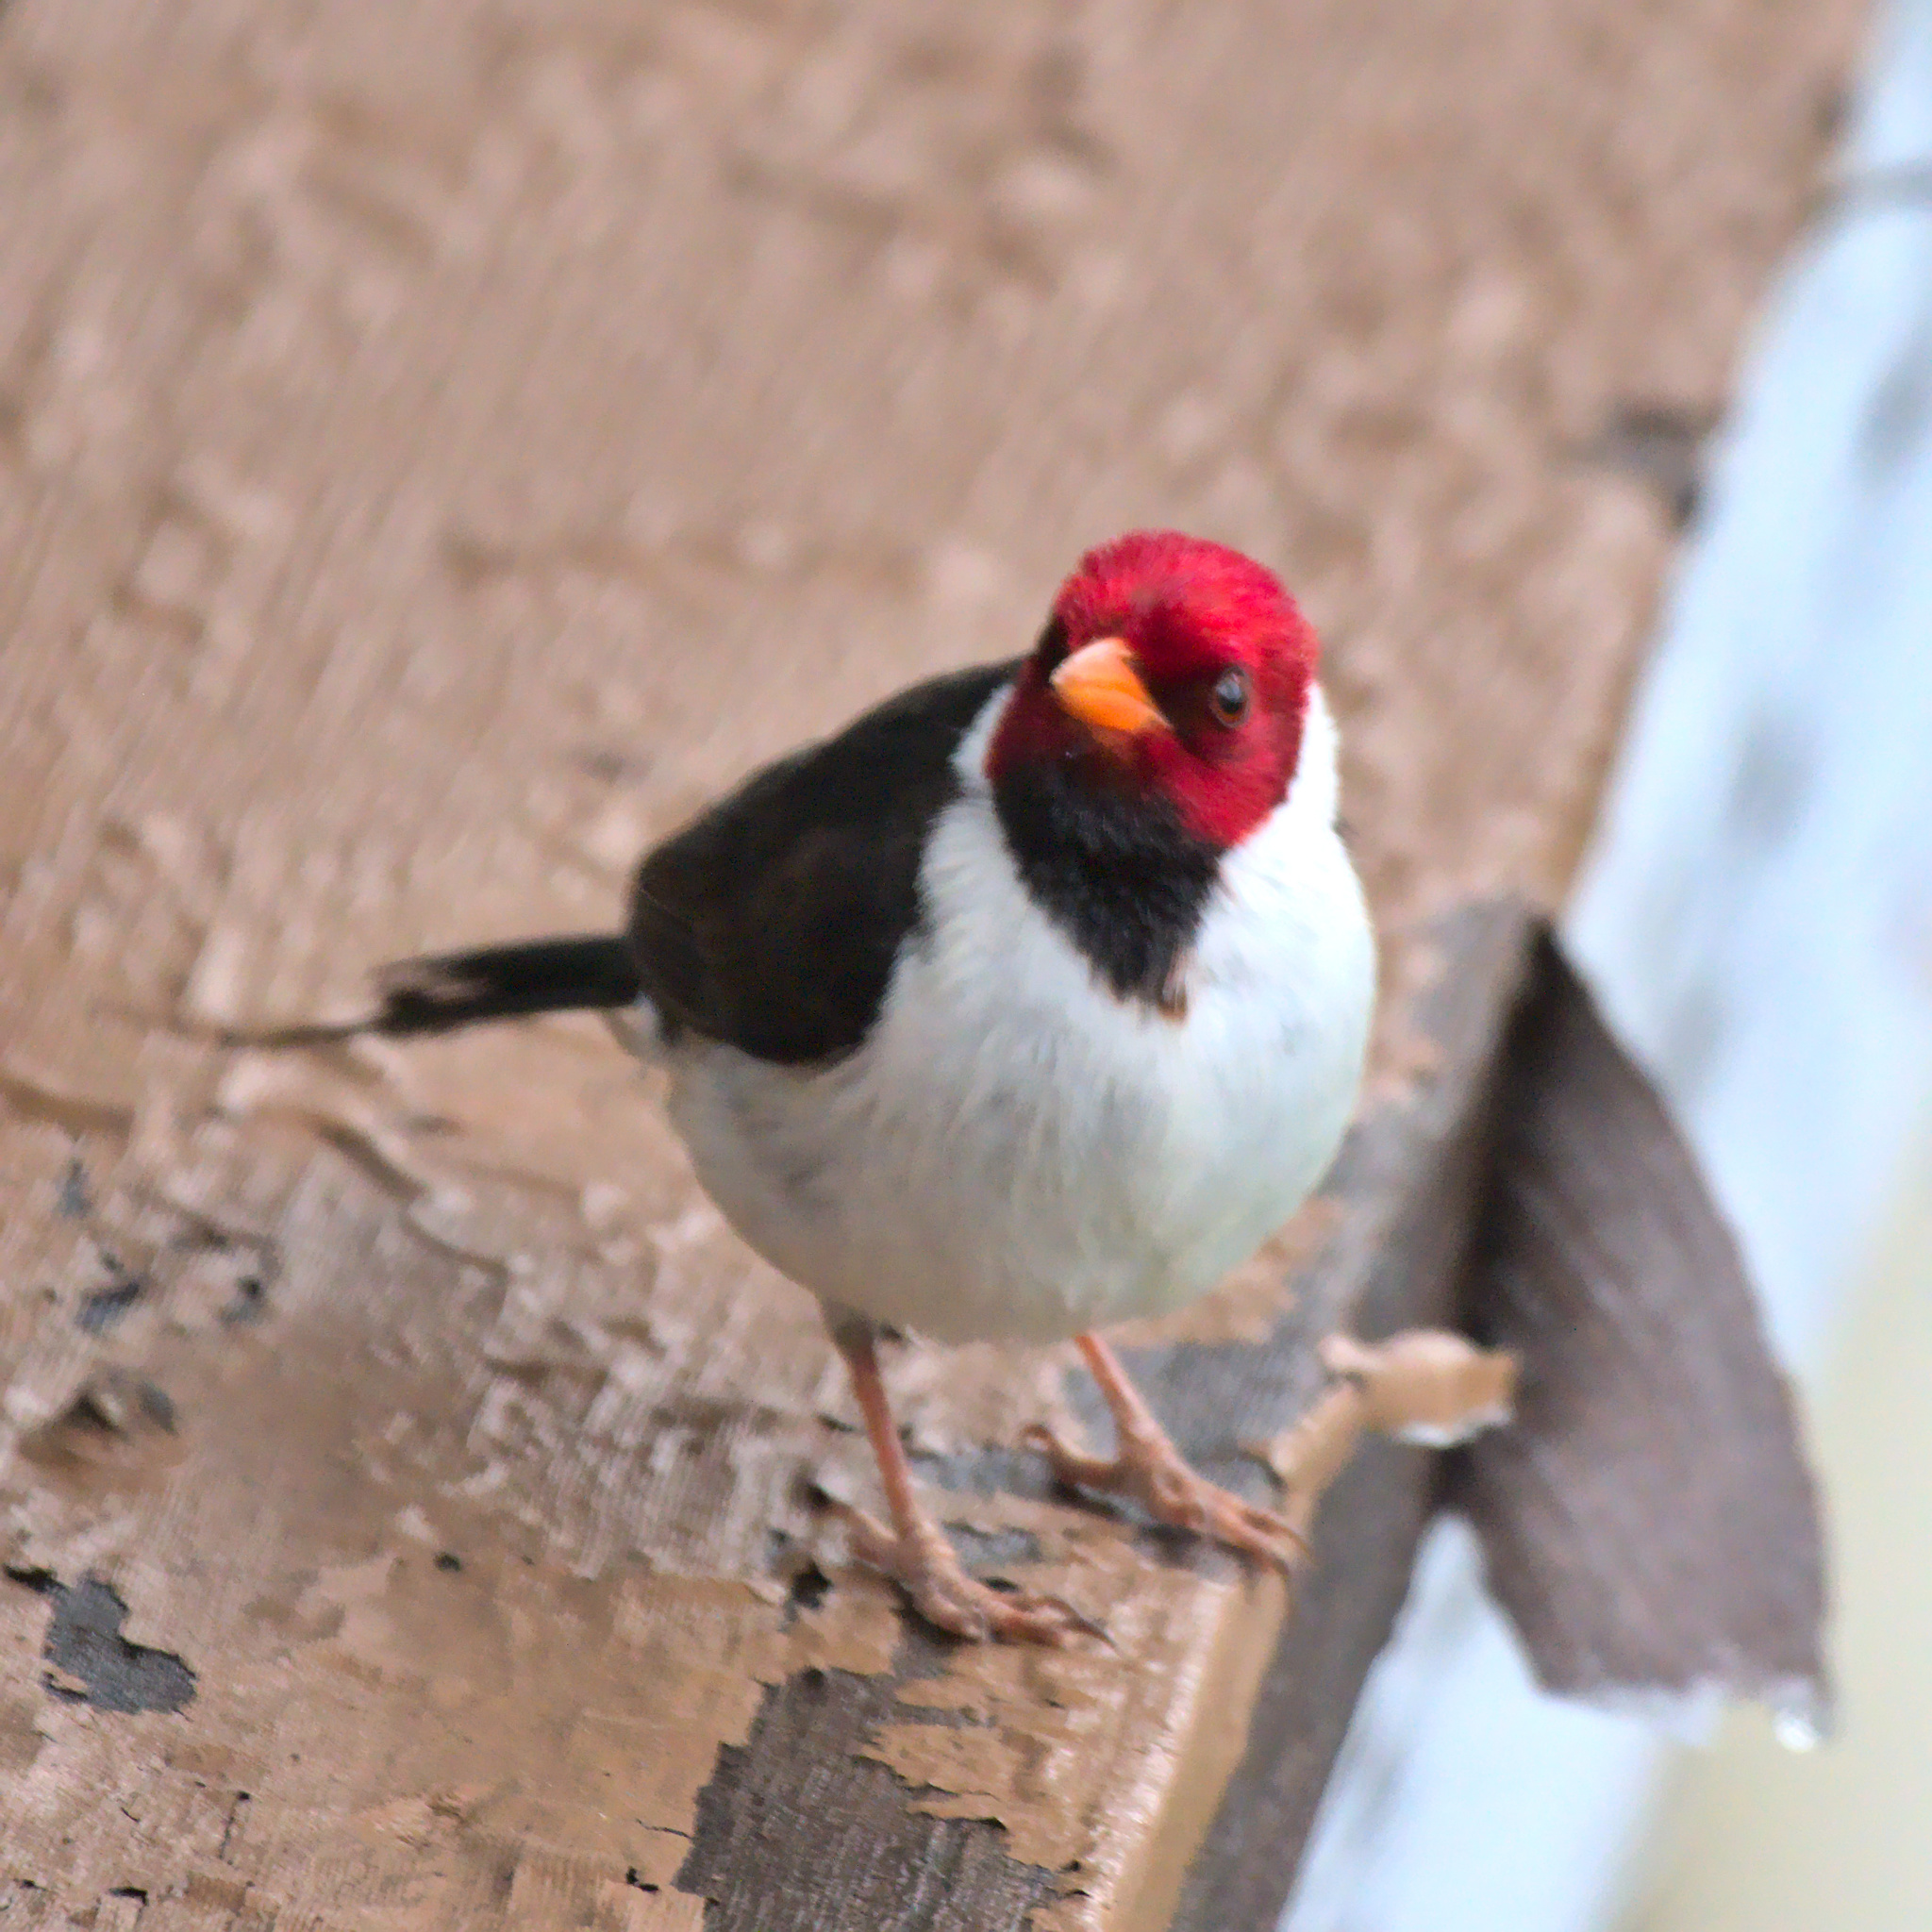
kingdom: Animalia
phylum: Chordata
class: Aves
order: Passeriformes
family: Thraupidae
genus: Paroaria
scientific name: Paroaria capitata
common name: Yellow-billed cardinal
